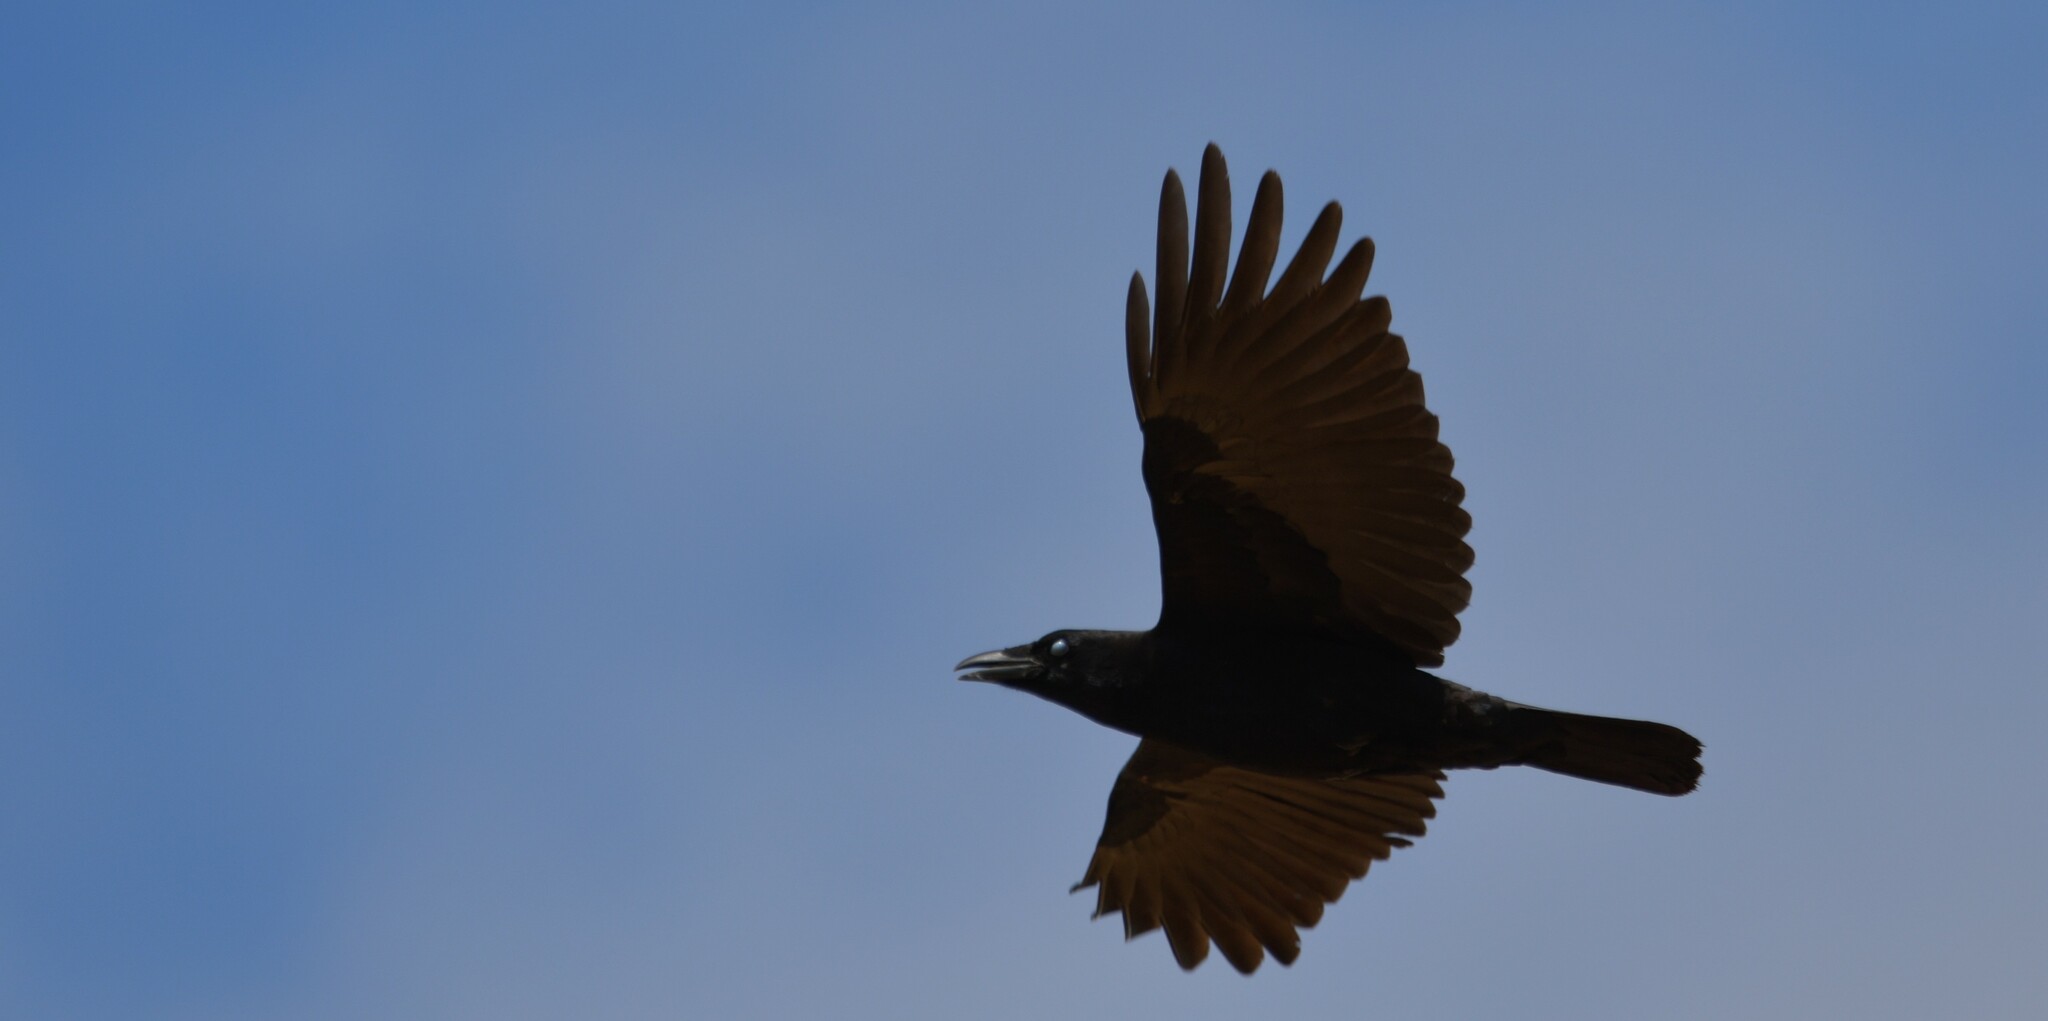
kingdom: Animalia
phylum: Chordata
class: Aves
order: Passeriformes
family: Corvidae
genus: Corvus
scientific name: Corvus corone
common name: Carrion crow
